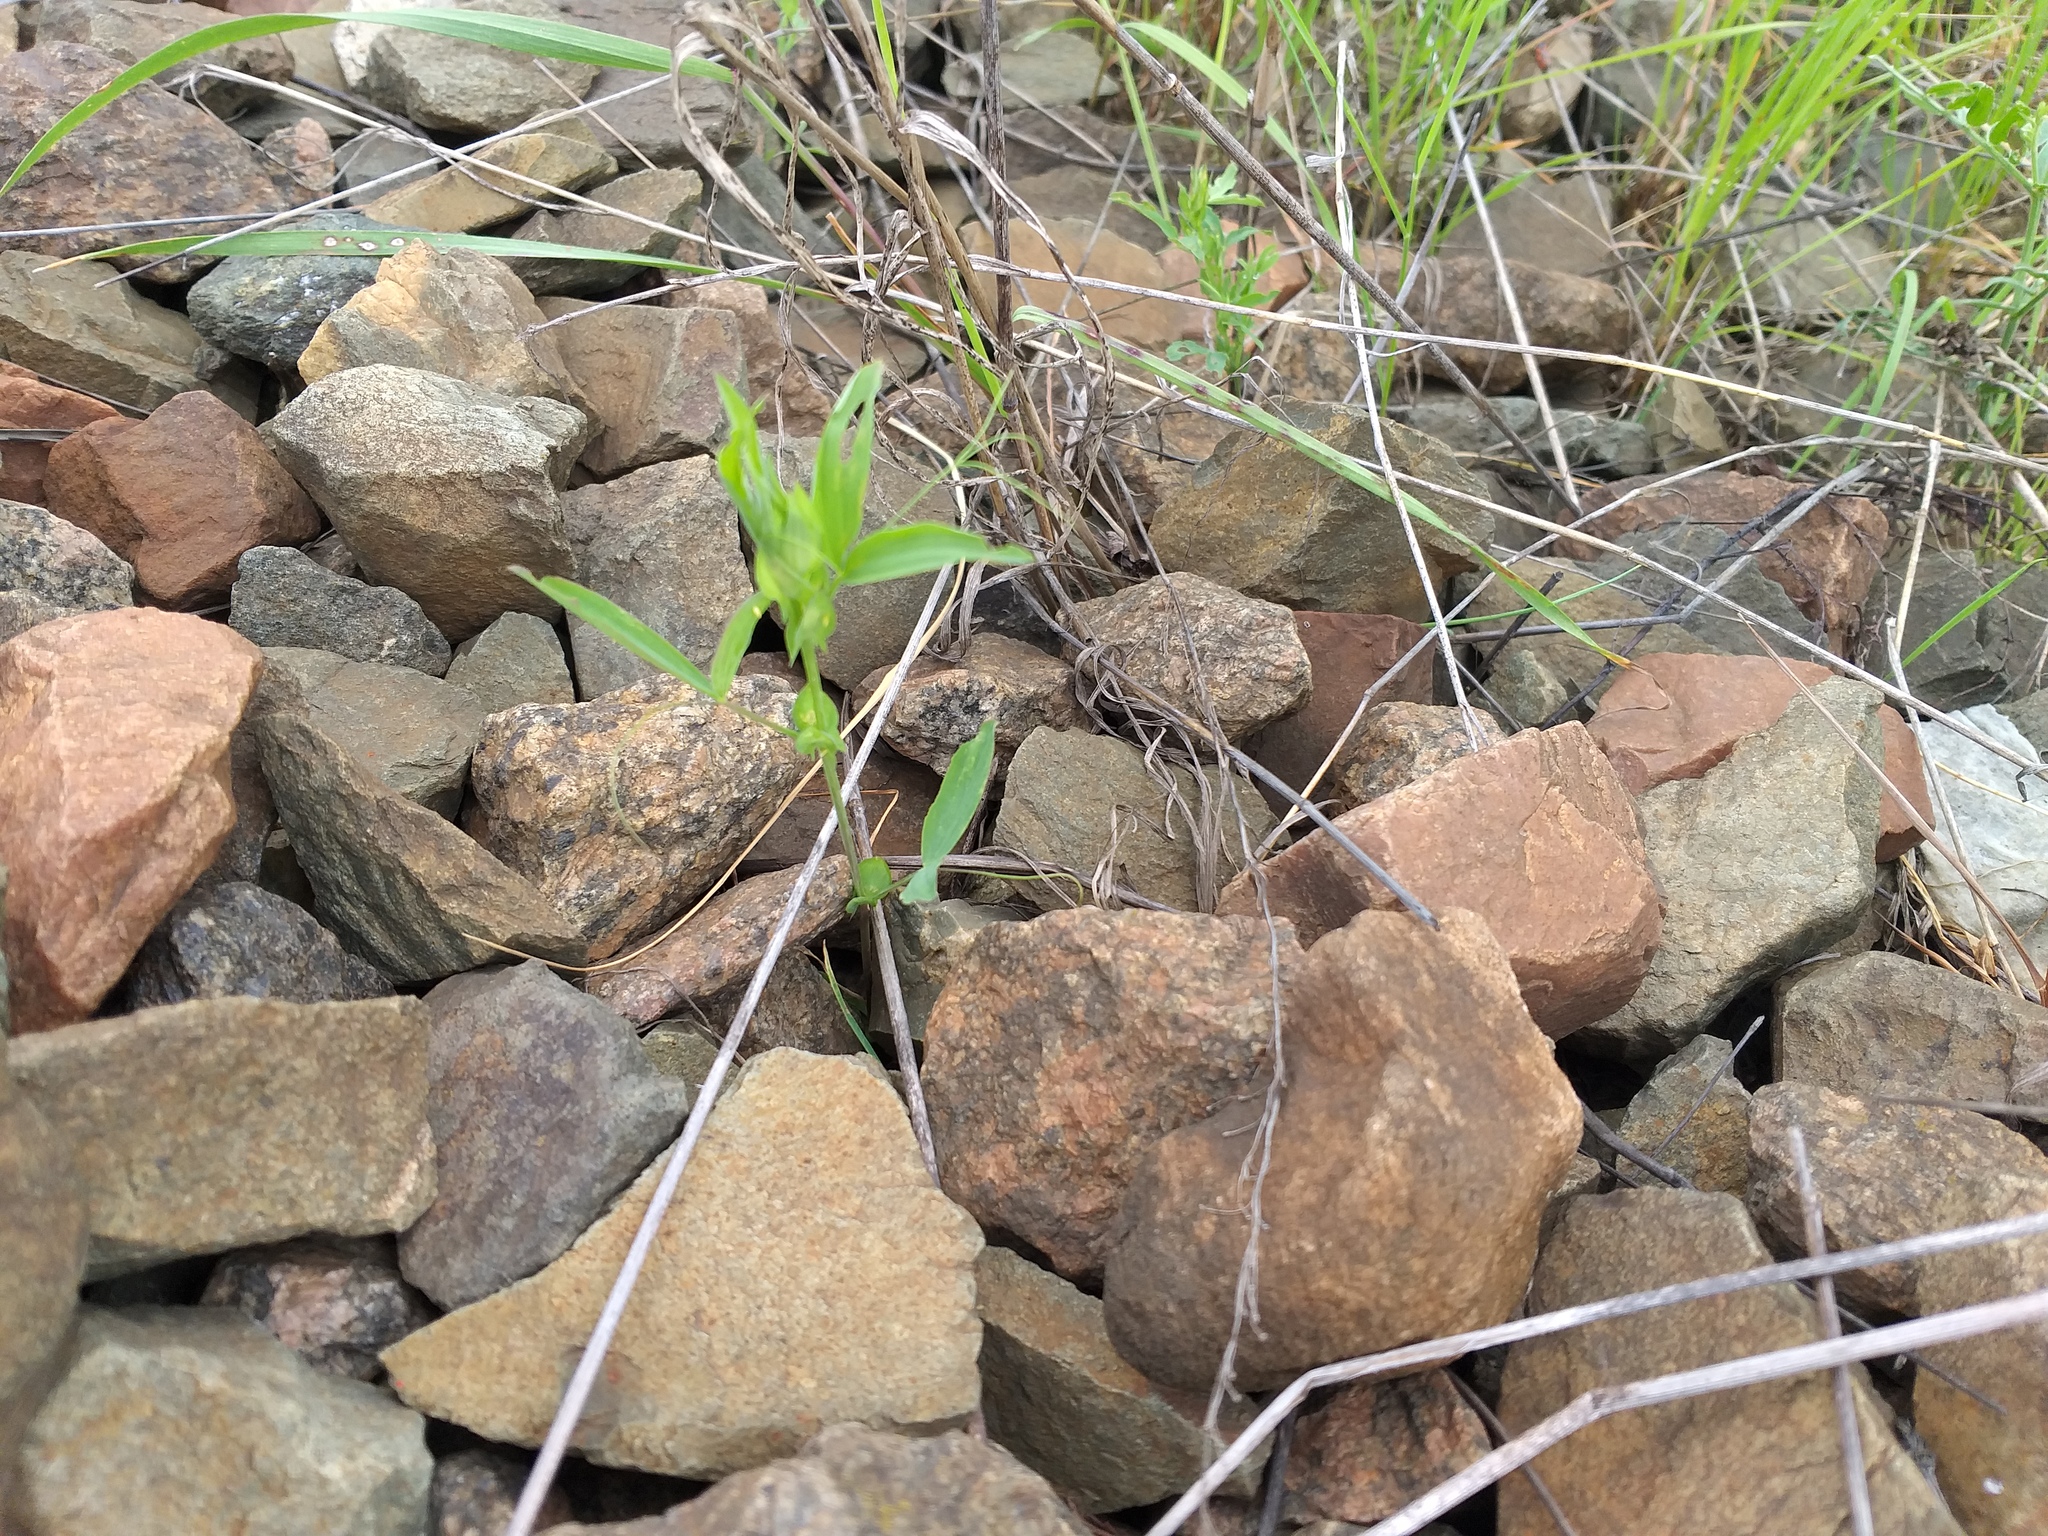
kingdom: Plantae
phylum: Tracheophyta
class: Magnoliopsida
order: Fabales
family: Fabaceae
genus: Lathyrus
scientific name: Lathyrus pratensis
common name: Meadow vetchling
